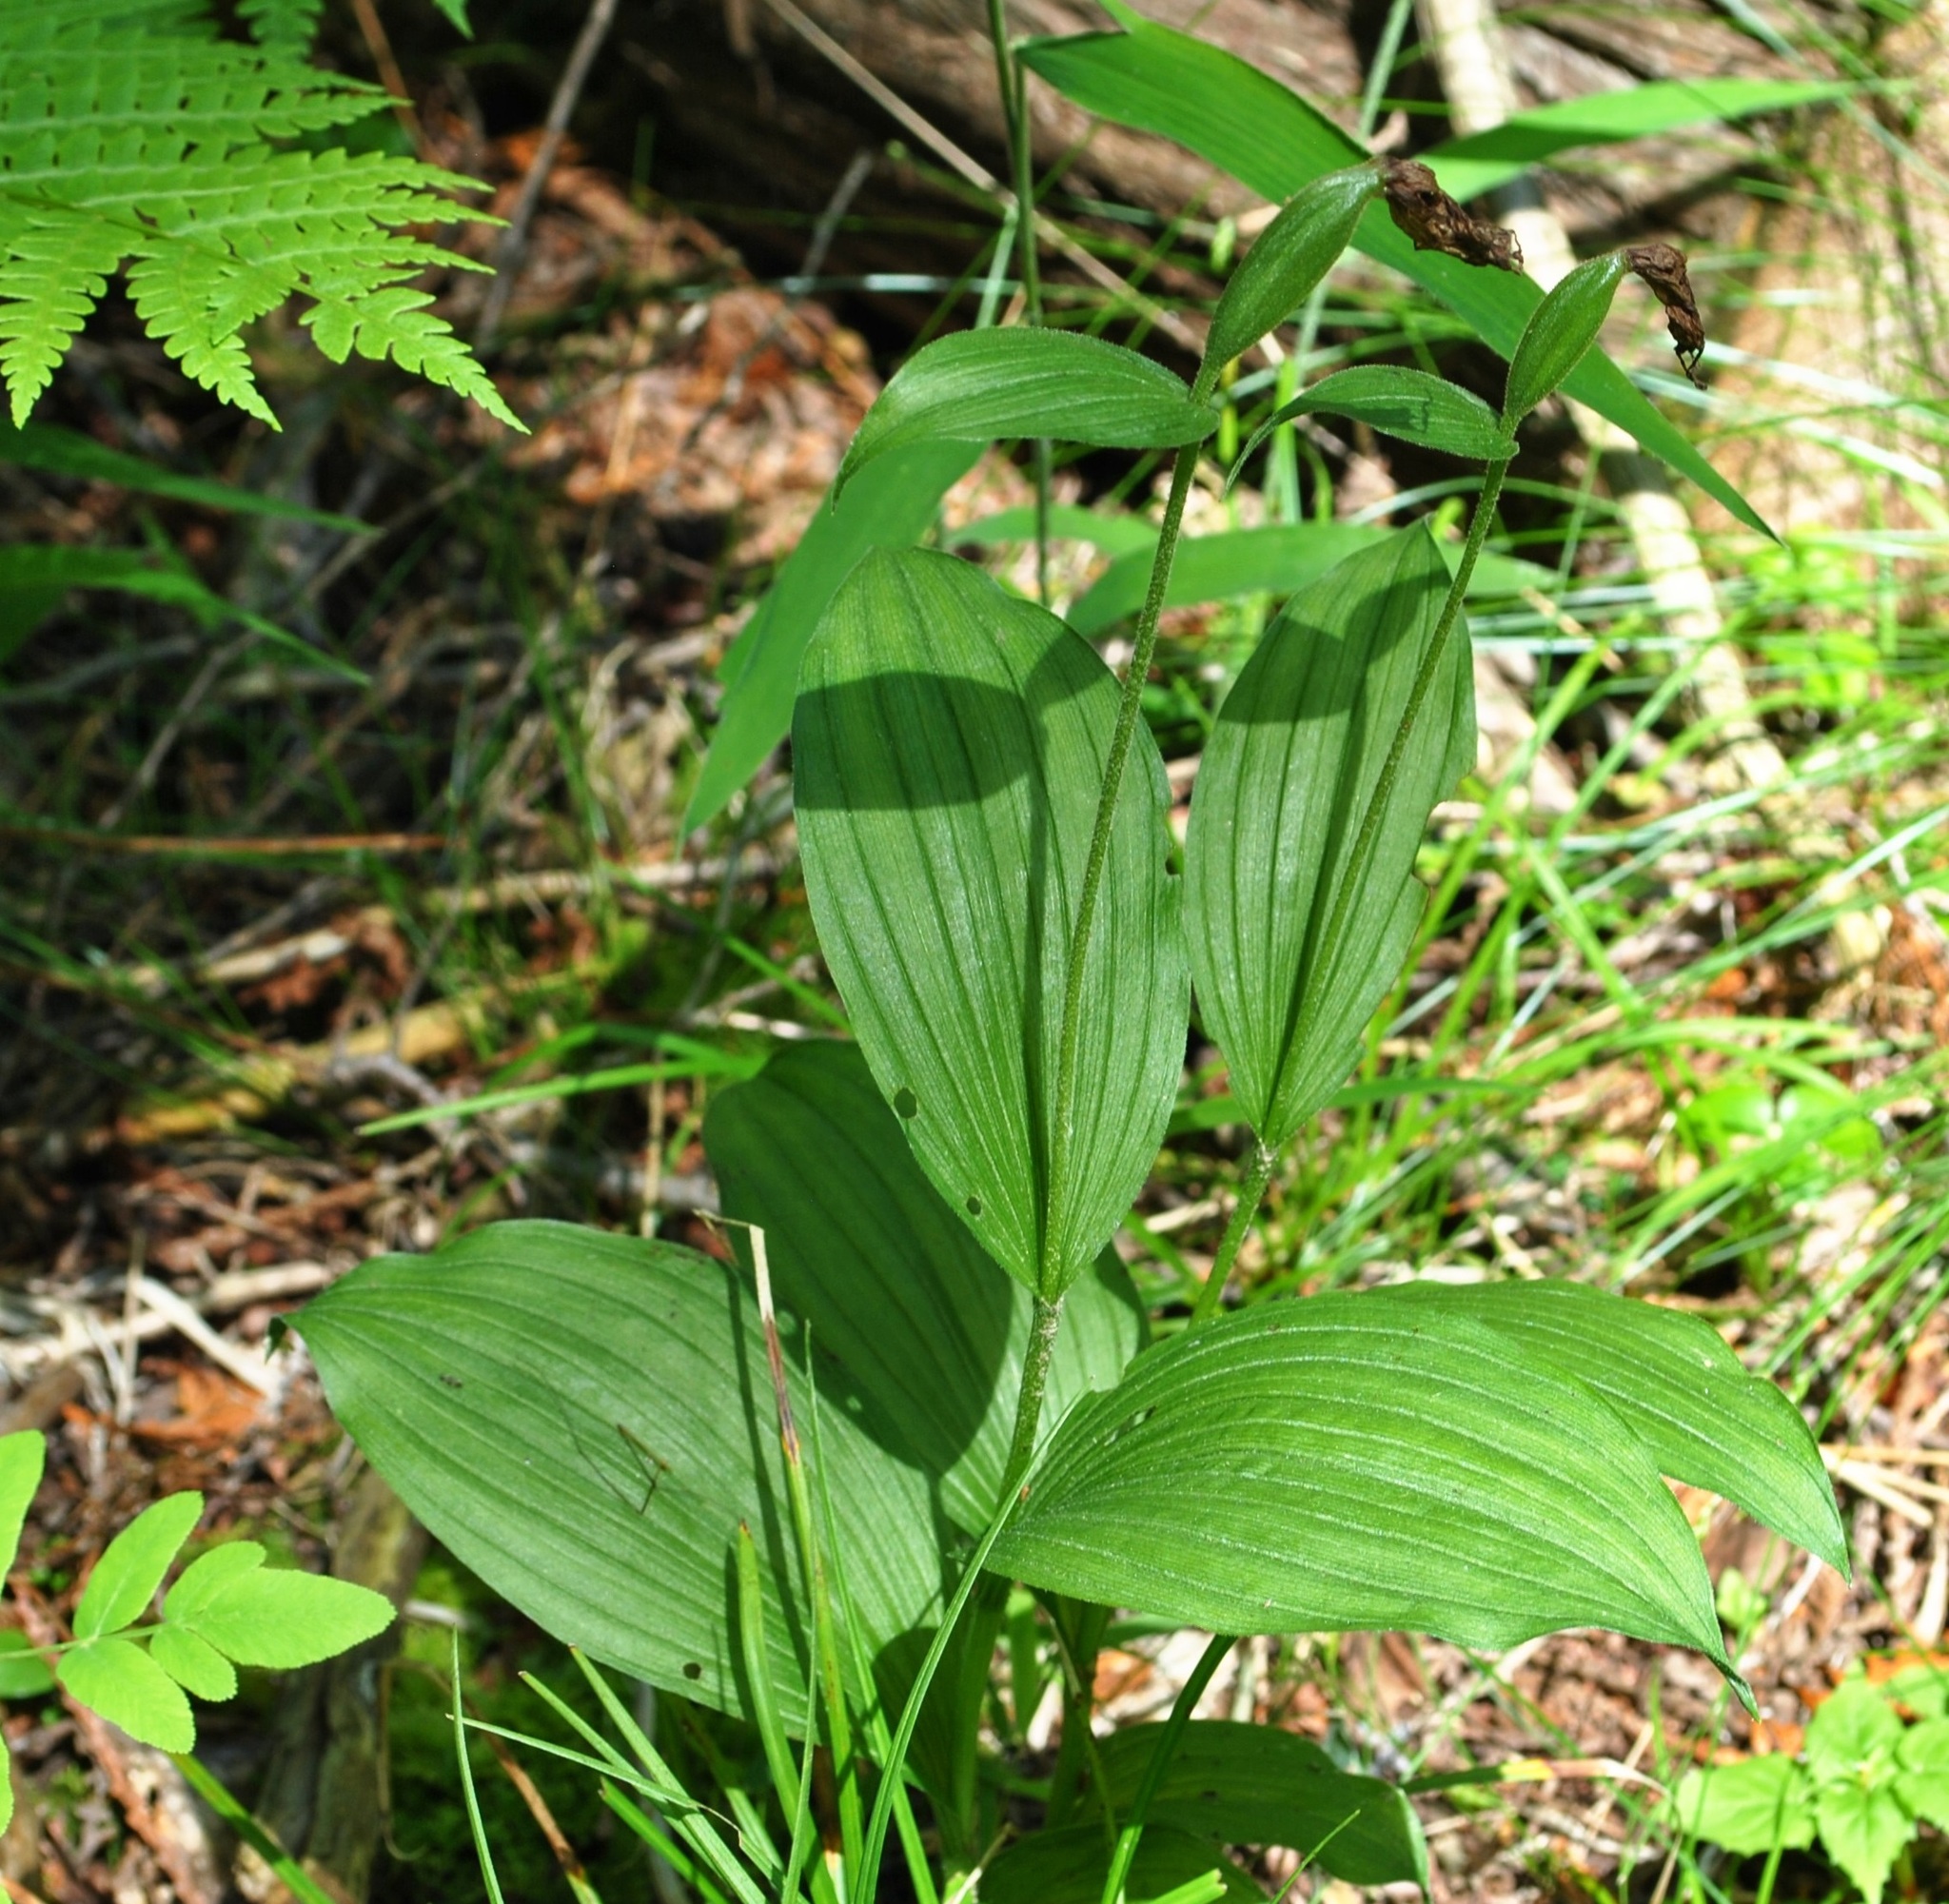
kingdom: Plantae
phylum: Tracheophyta
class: Liliopsida
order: Asparagales
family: Orchidaceae
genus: Cypripedium
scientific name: Cypripedium parviflorum
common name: American yellow lady's-slipper
